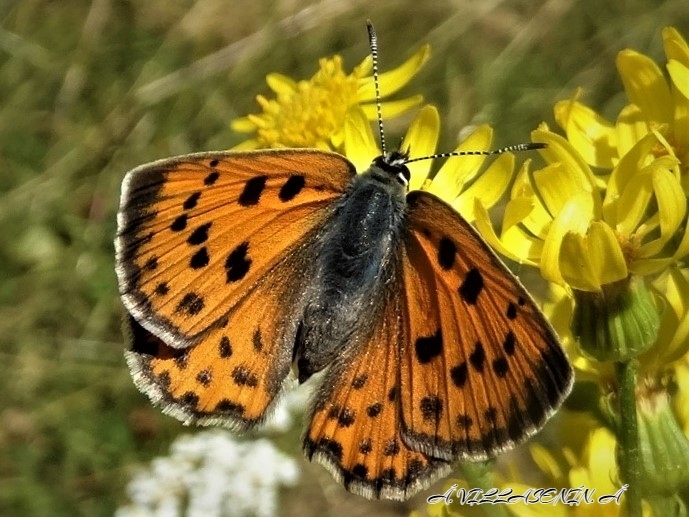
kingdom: Animalia
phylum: Arthropoda
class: Insecta
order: Lepidoptera
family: Lycaenidae
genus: Lycaena
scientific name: Lycaena alciphron
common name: Purple-shot copper
